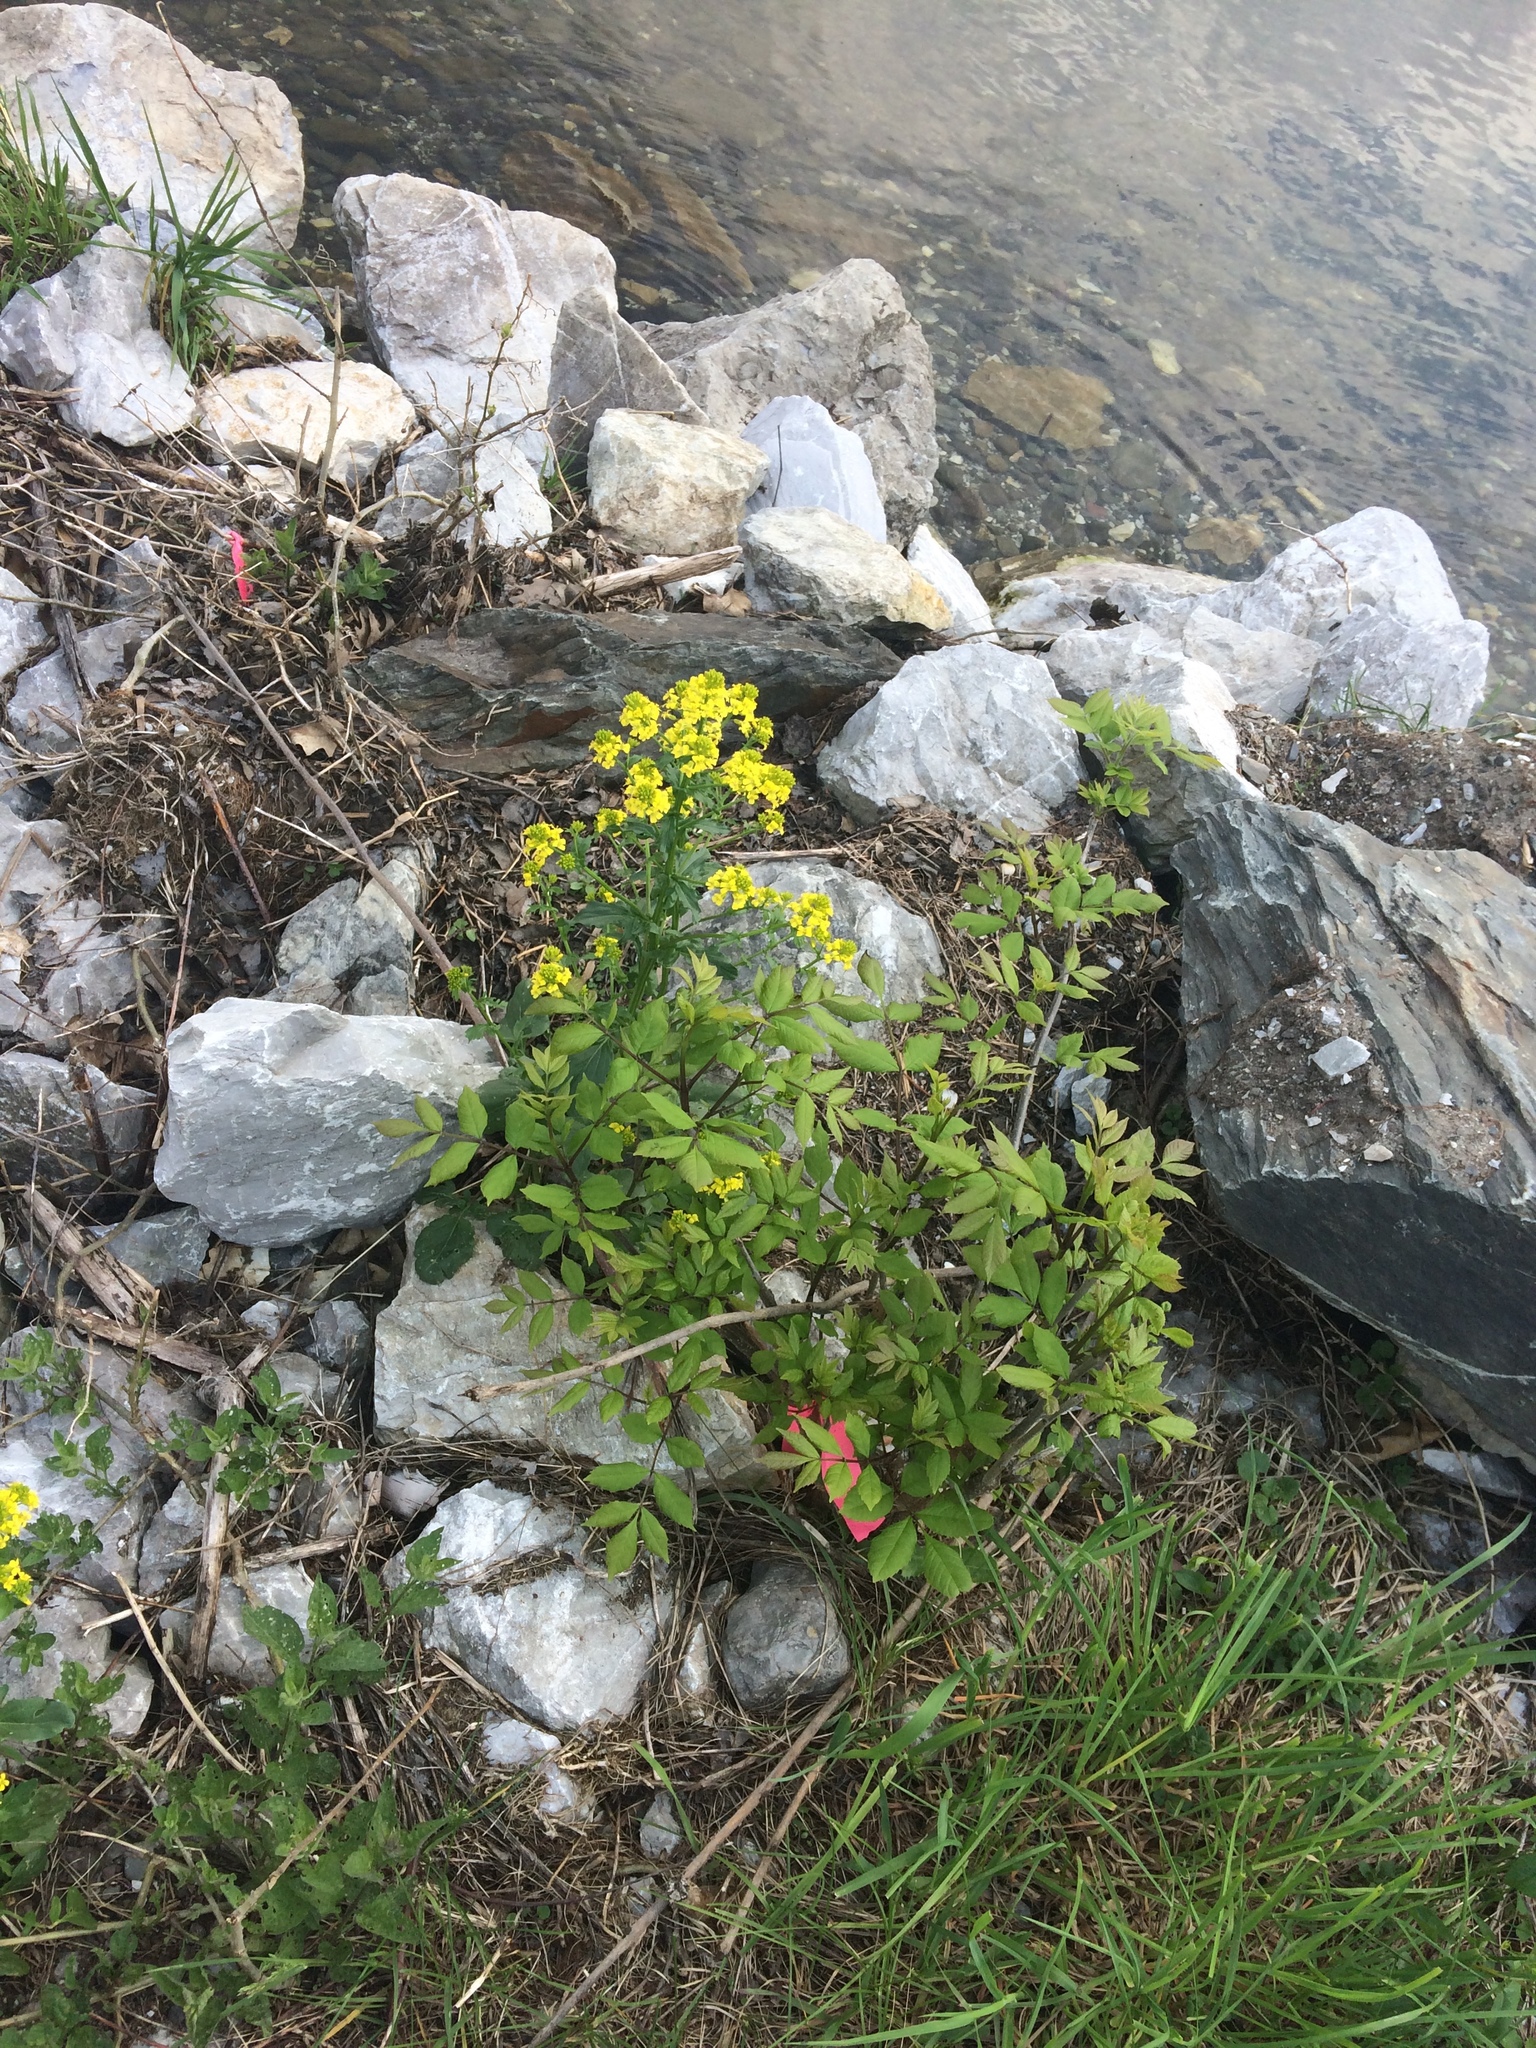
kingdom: Plantae
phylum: Tracheophyta
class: Magnoliopsida
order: Brassicales
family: Brassicaceae
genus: Barbarea
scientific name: Barbarea vulgaris
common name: Cressy-greens
